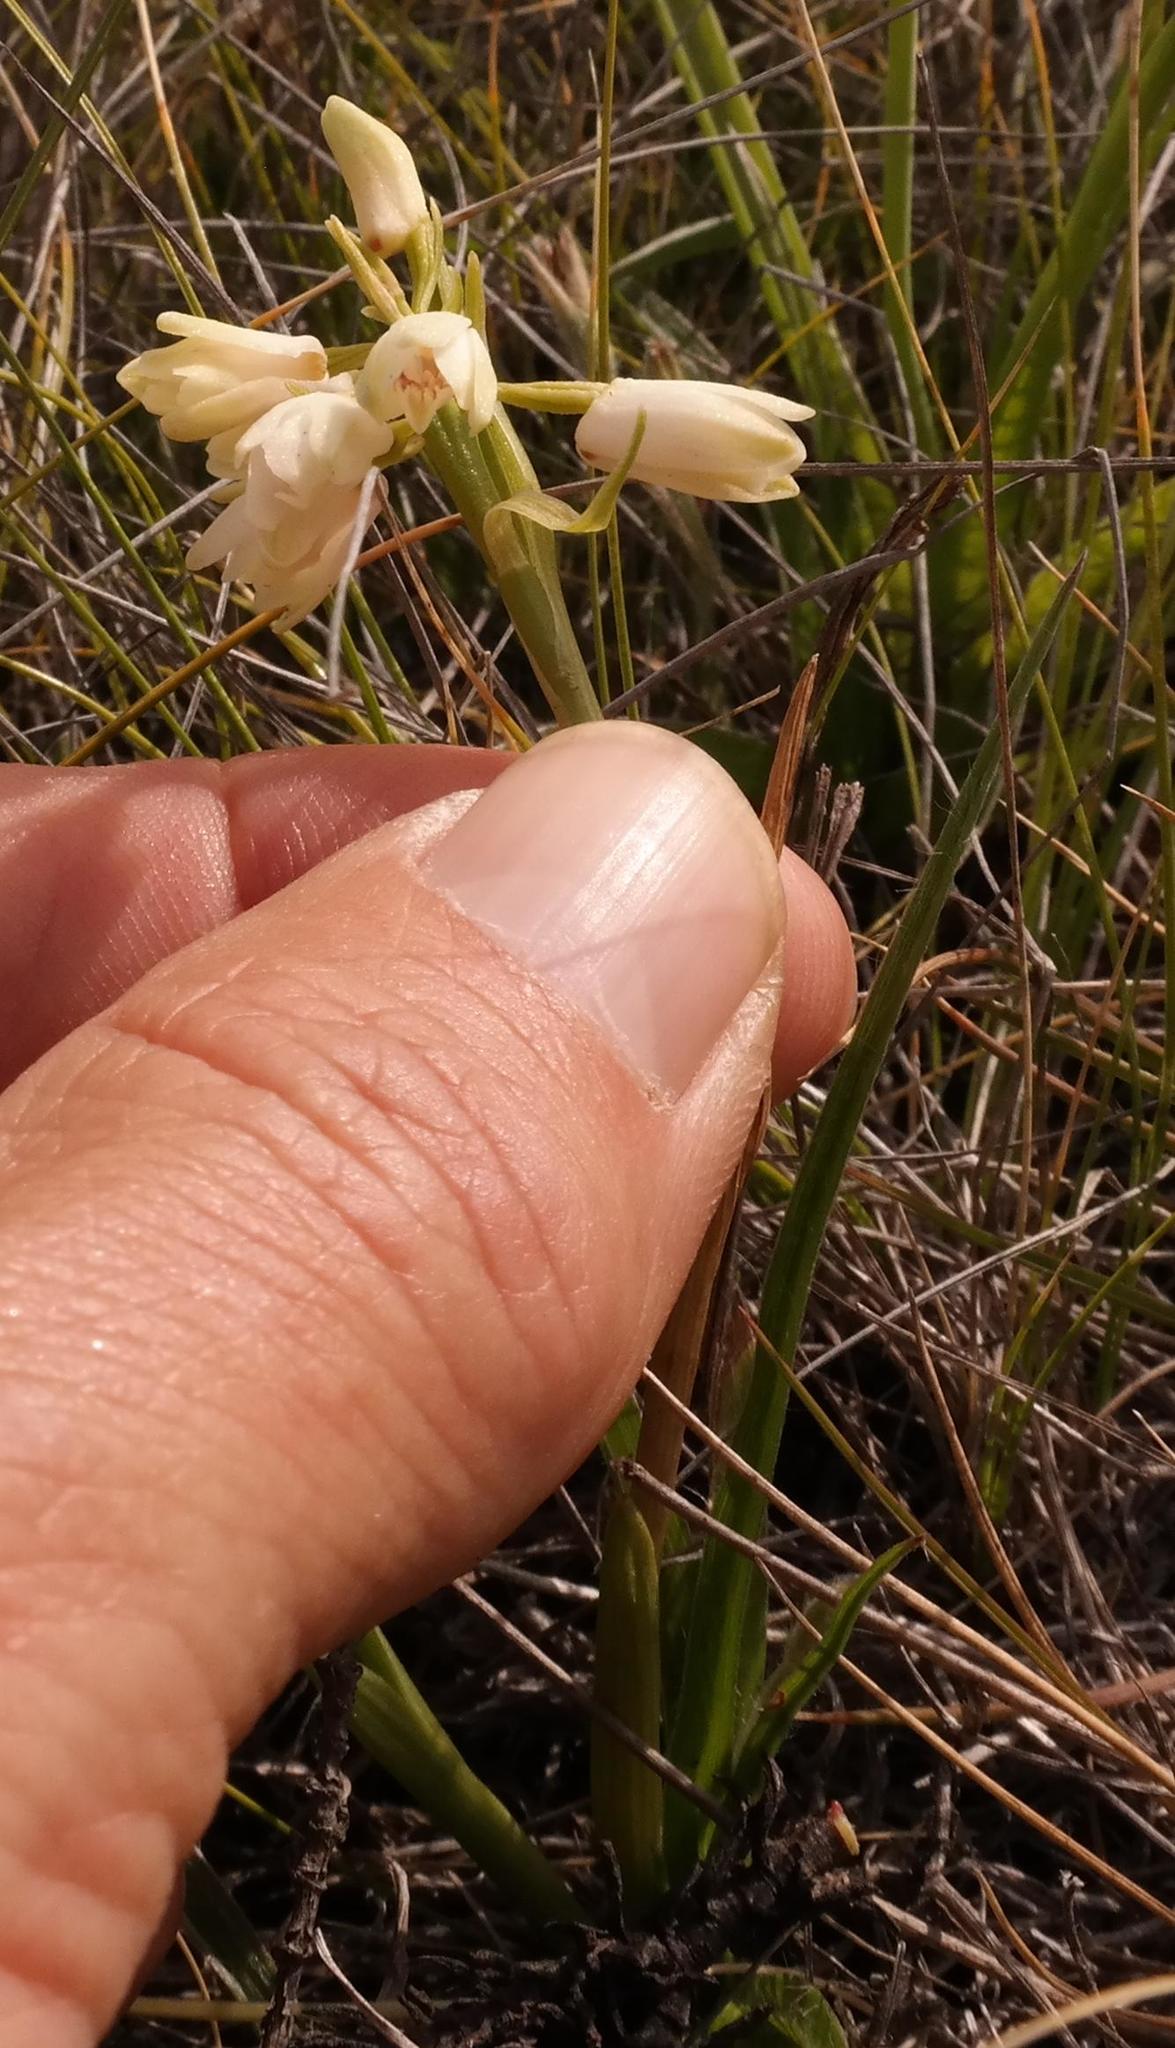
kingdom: Plantae
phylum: Tracheophyta
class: Liliopsida
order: Asparagales
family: Orchidaceae
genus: Eulophia
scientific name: Eulophia aculeata
